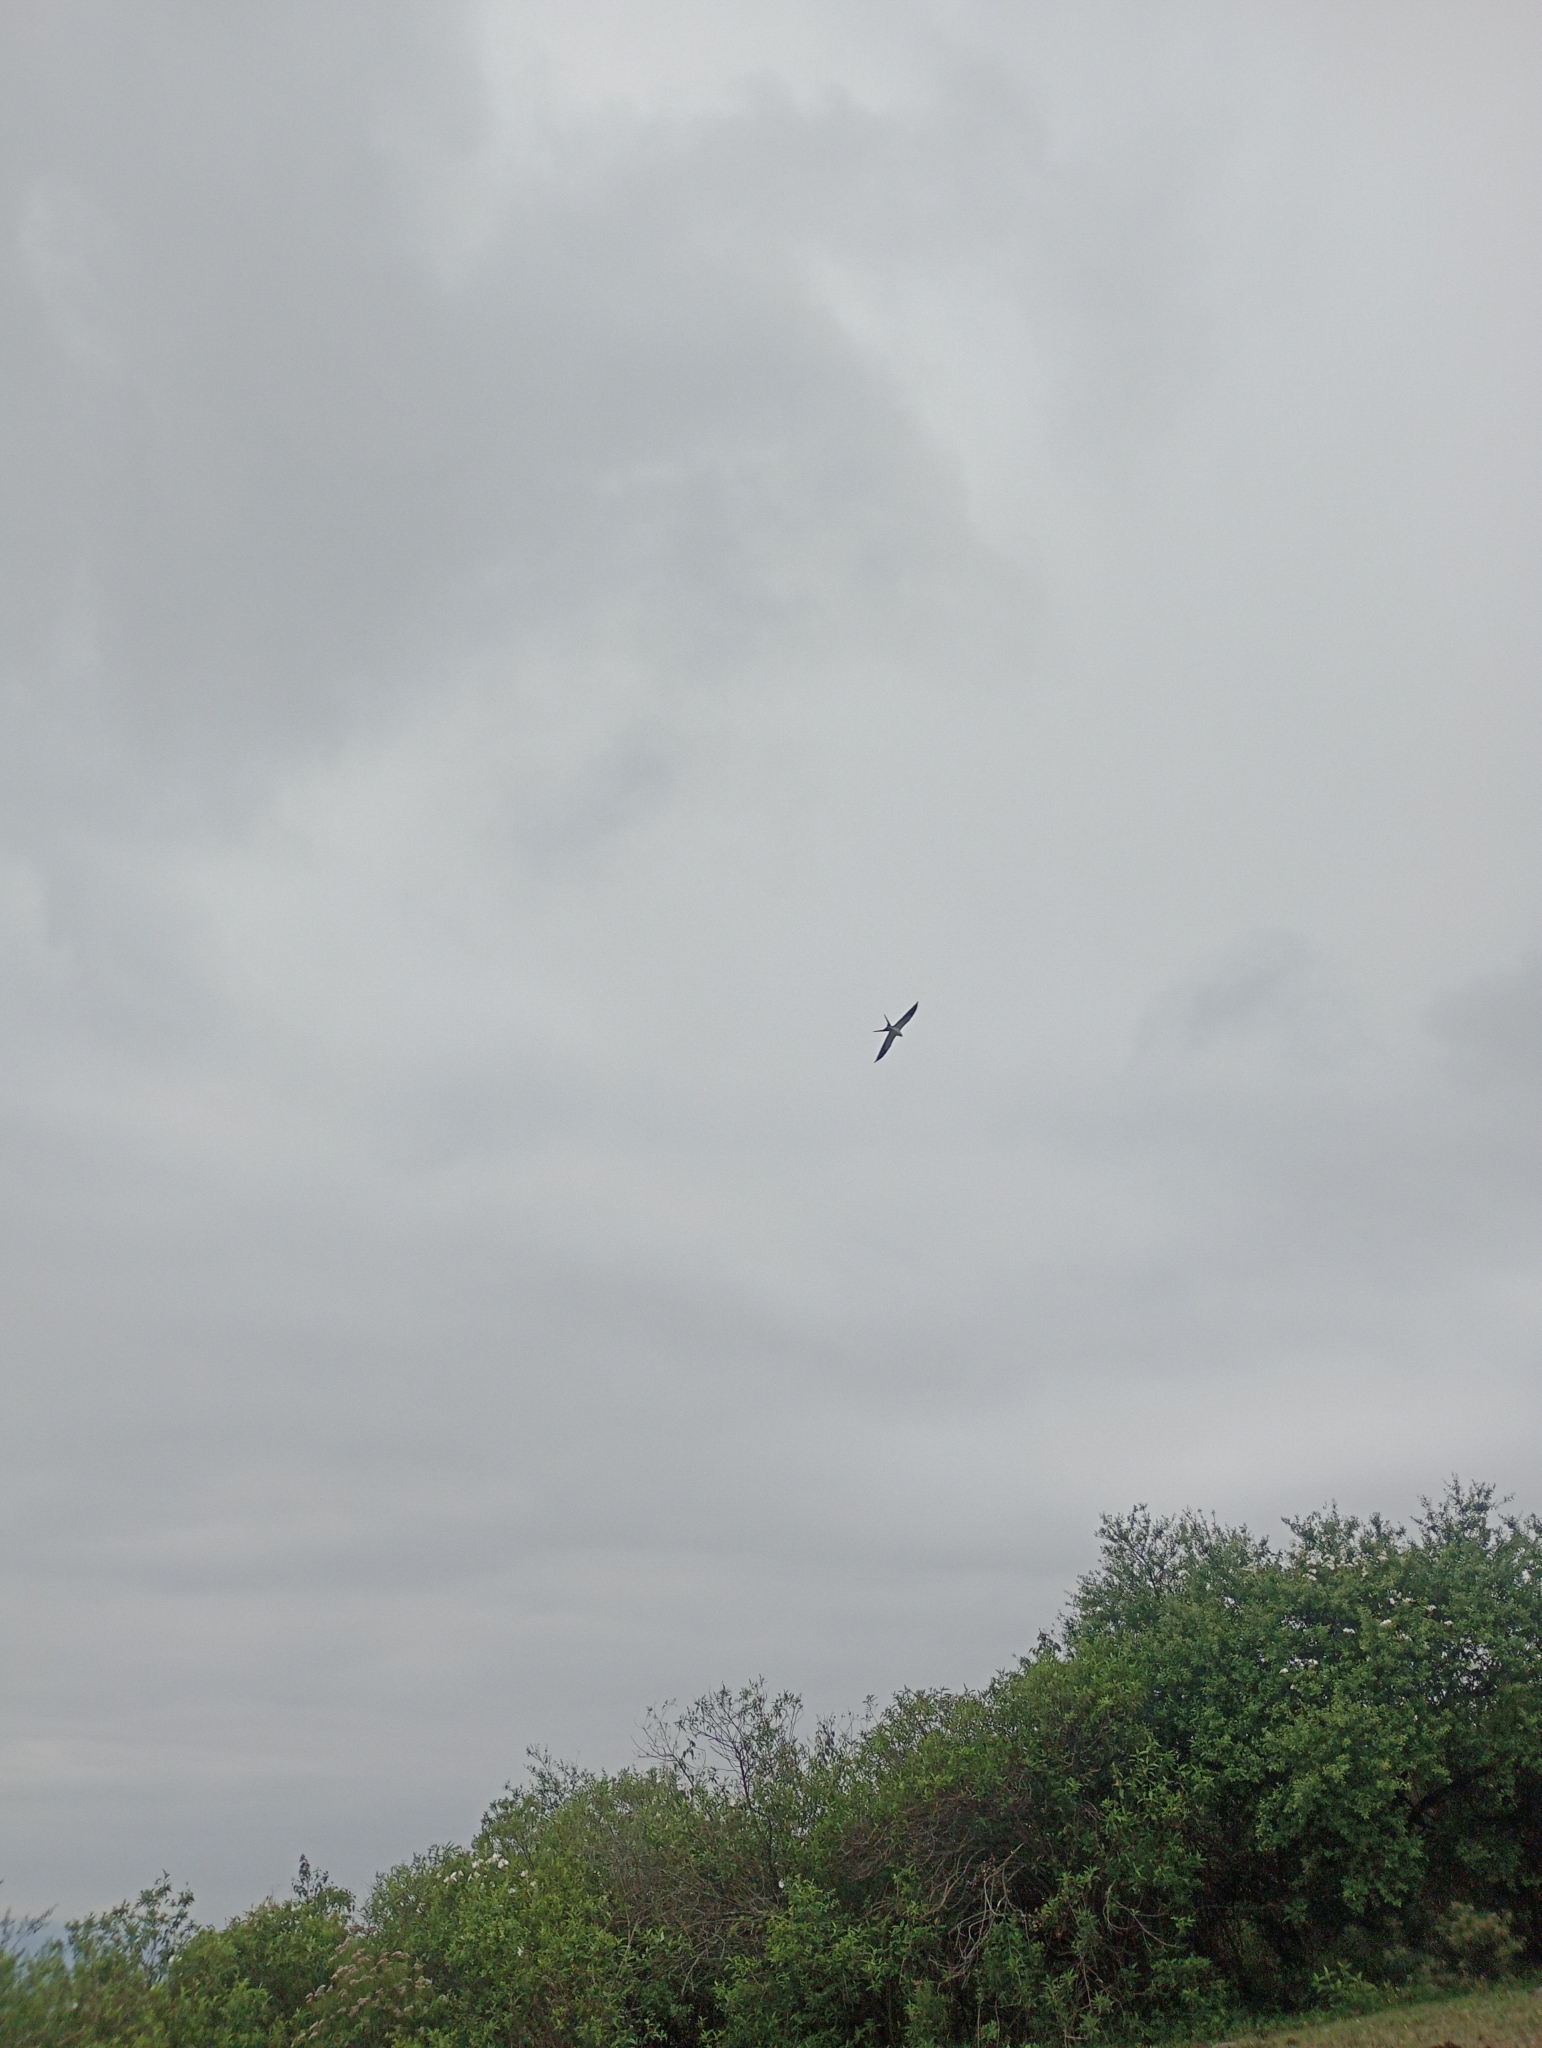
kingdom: Animalia
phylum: Chordata
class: Aves
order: Accipitriformes
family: Accipitridae
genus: Elanoides
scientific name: Elanoides forficatus
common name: Swallow-tailed kite
